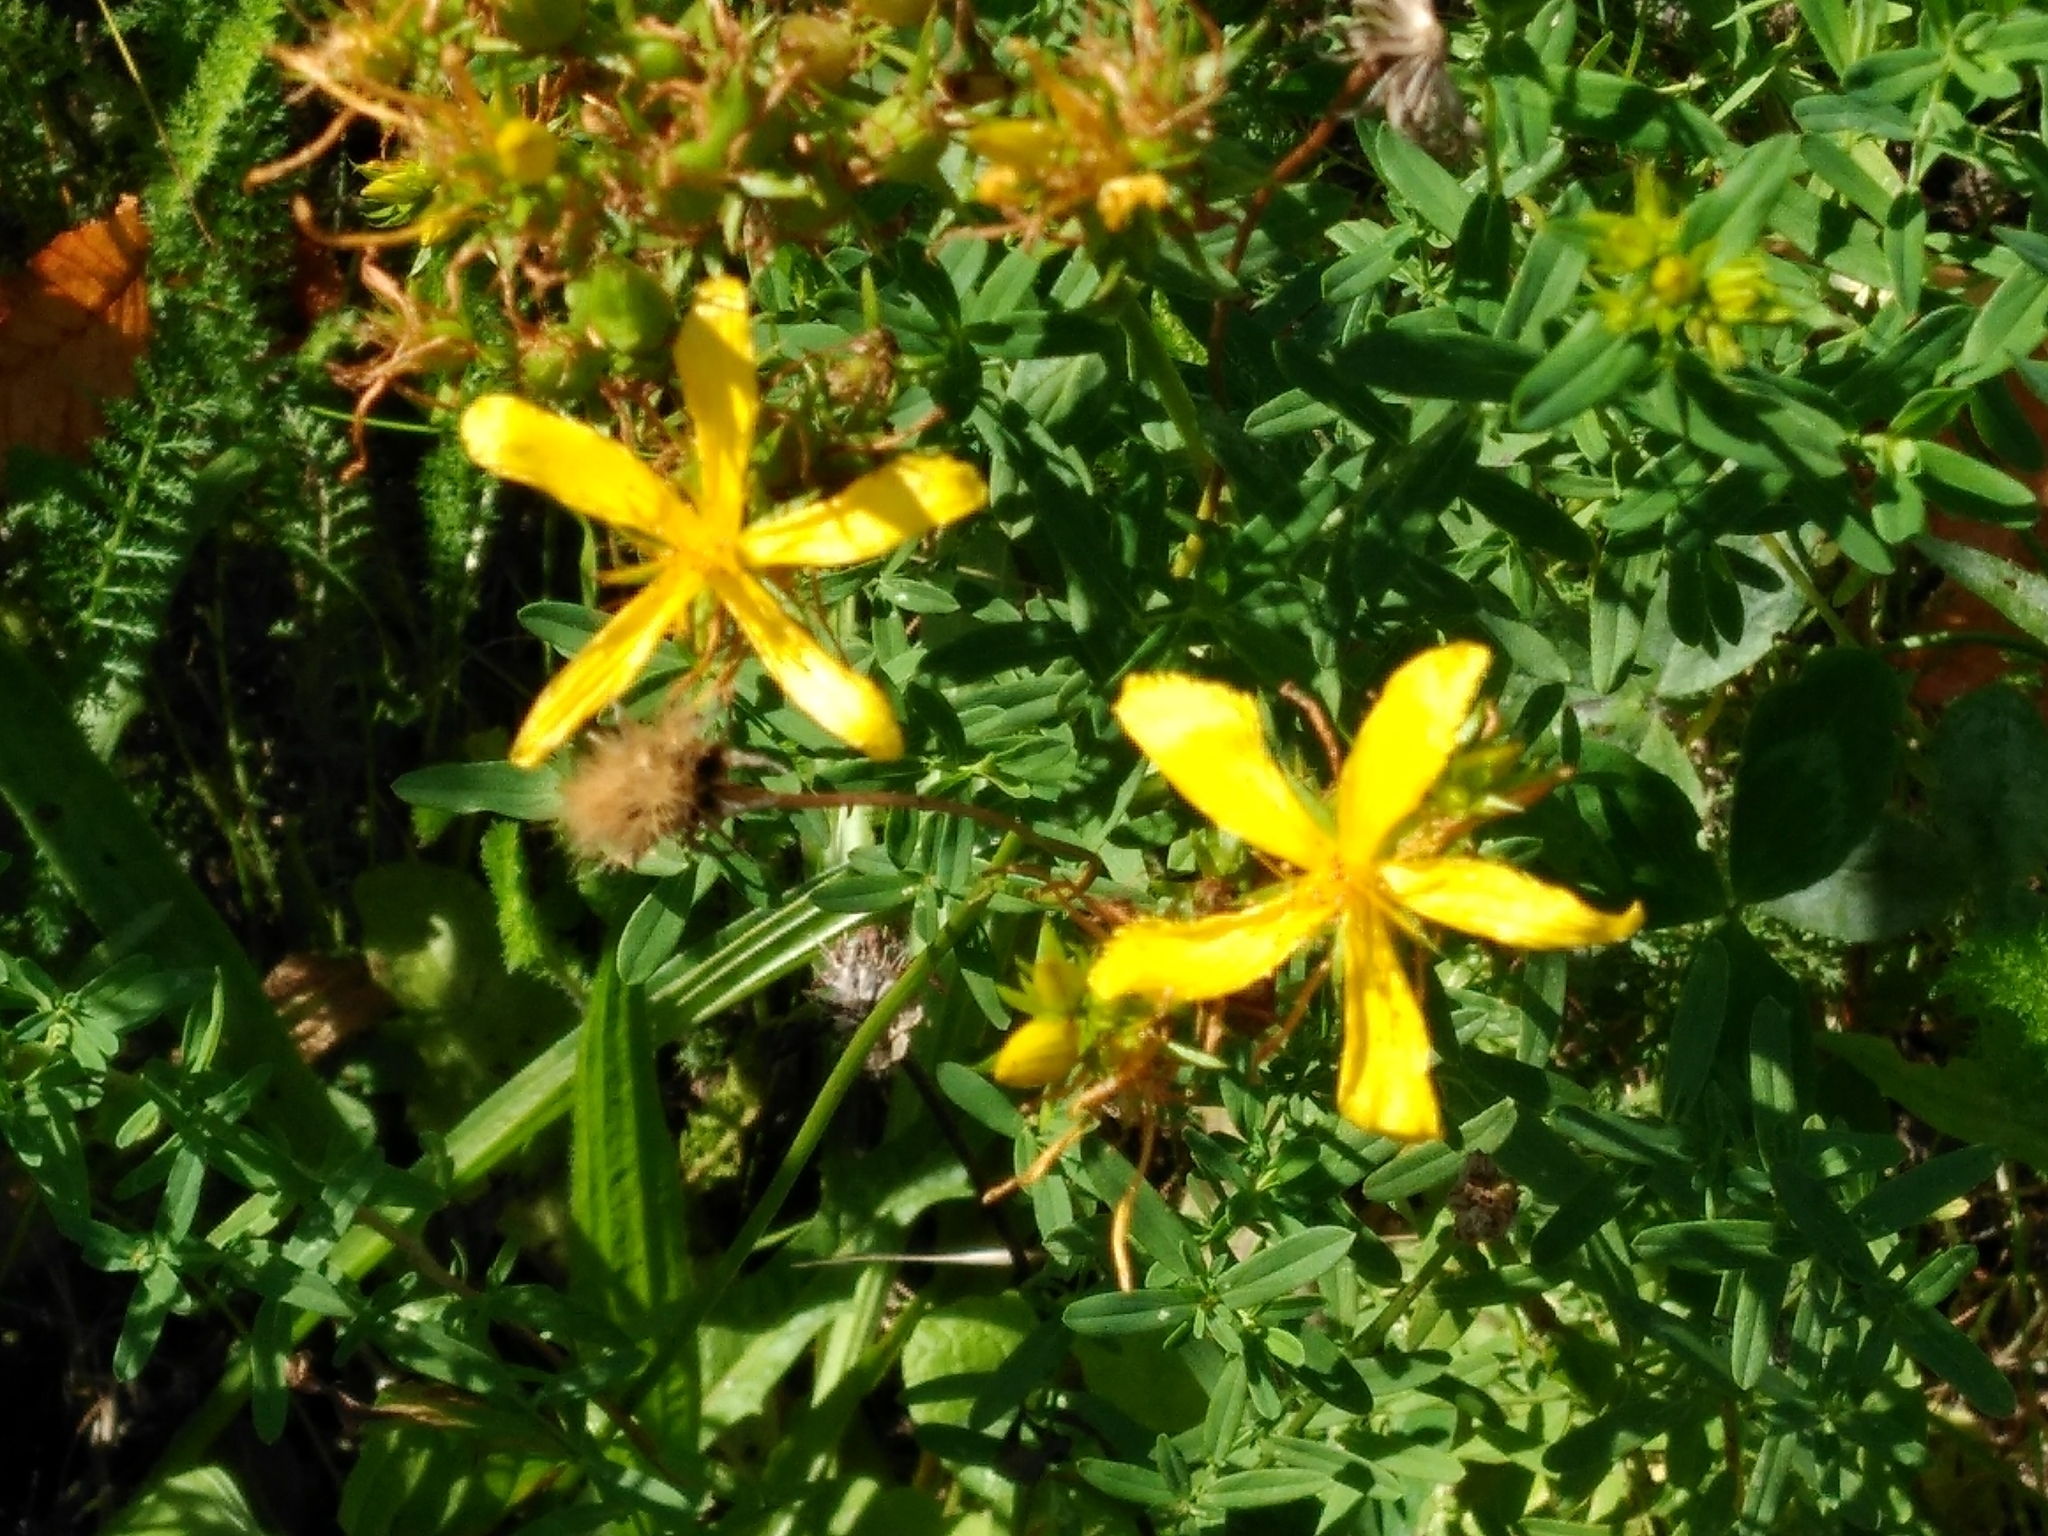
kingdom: Plantae
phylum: Tracheophyta
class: Magnoliopsida
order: Malpighiales
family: Hypericaceae
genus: Hypericum
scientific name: Hypericum perforatum
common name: Common st. johnswort
